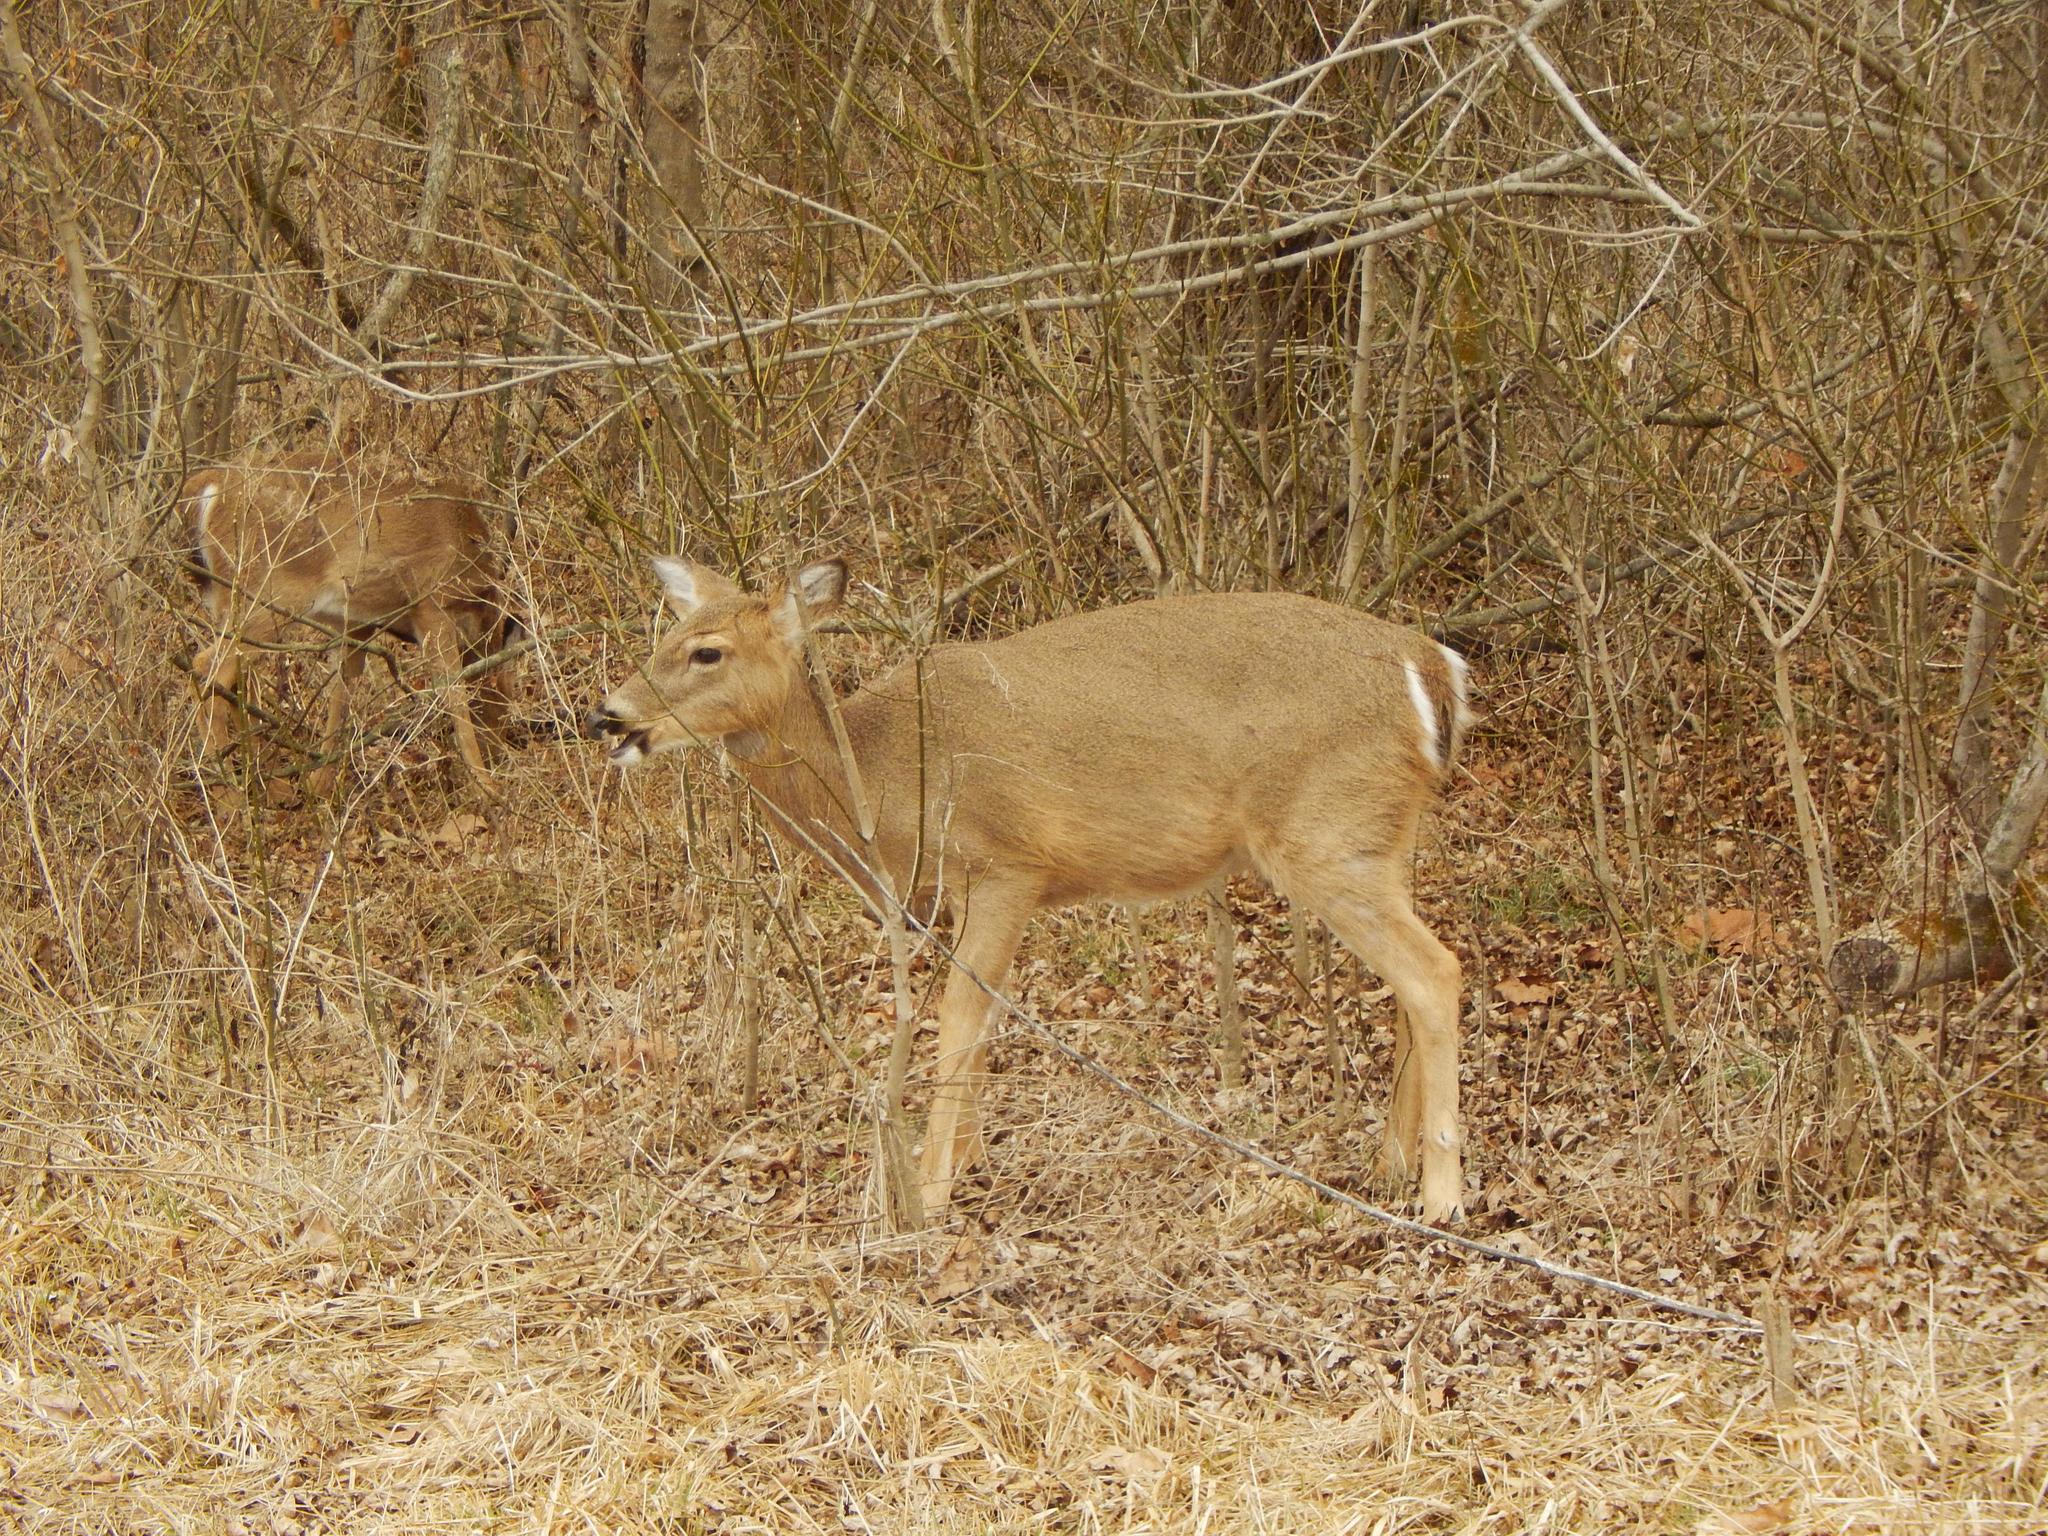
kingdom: Animalia
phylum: Chordata
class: Mammalia
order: Artiodactyla
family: Cervidae
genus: Odocoileus
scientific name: Odocoileus virginianus
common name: White-tailed deer
